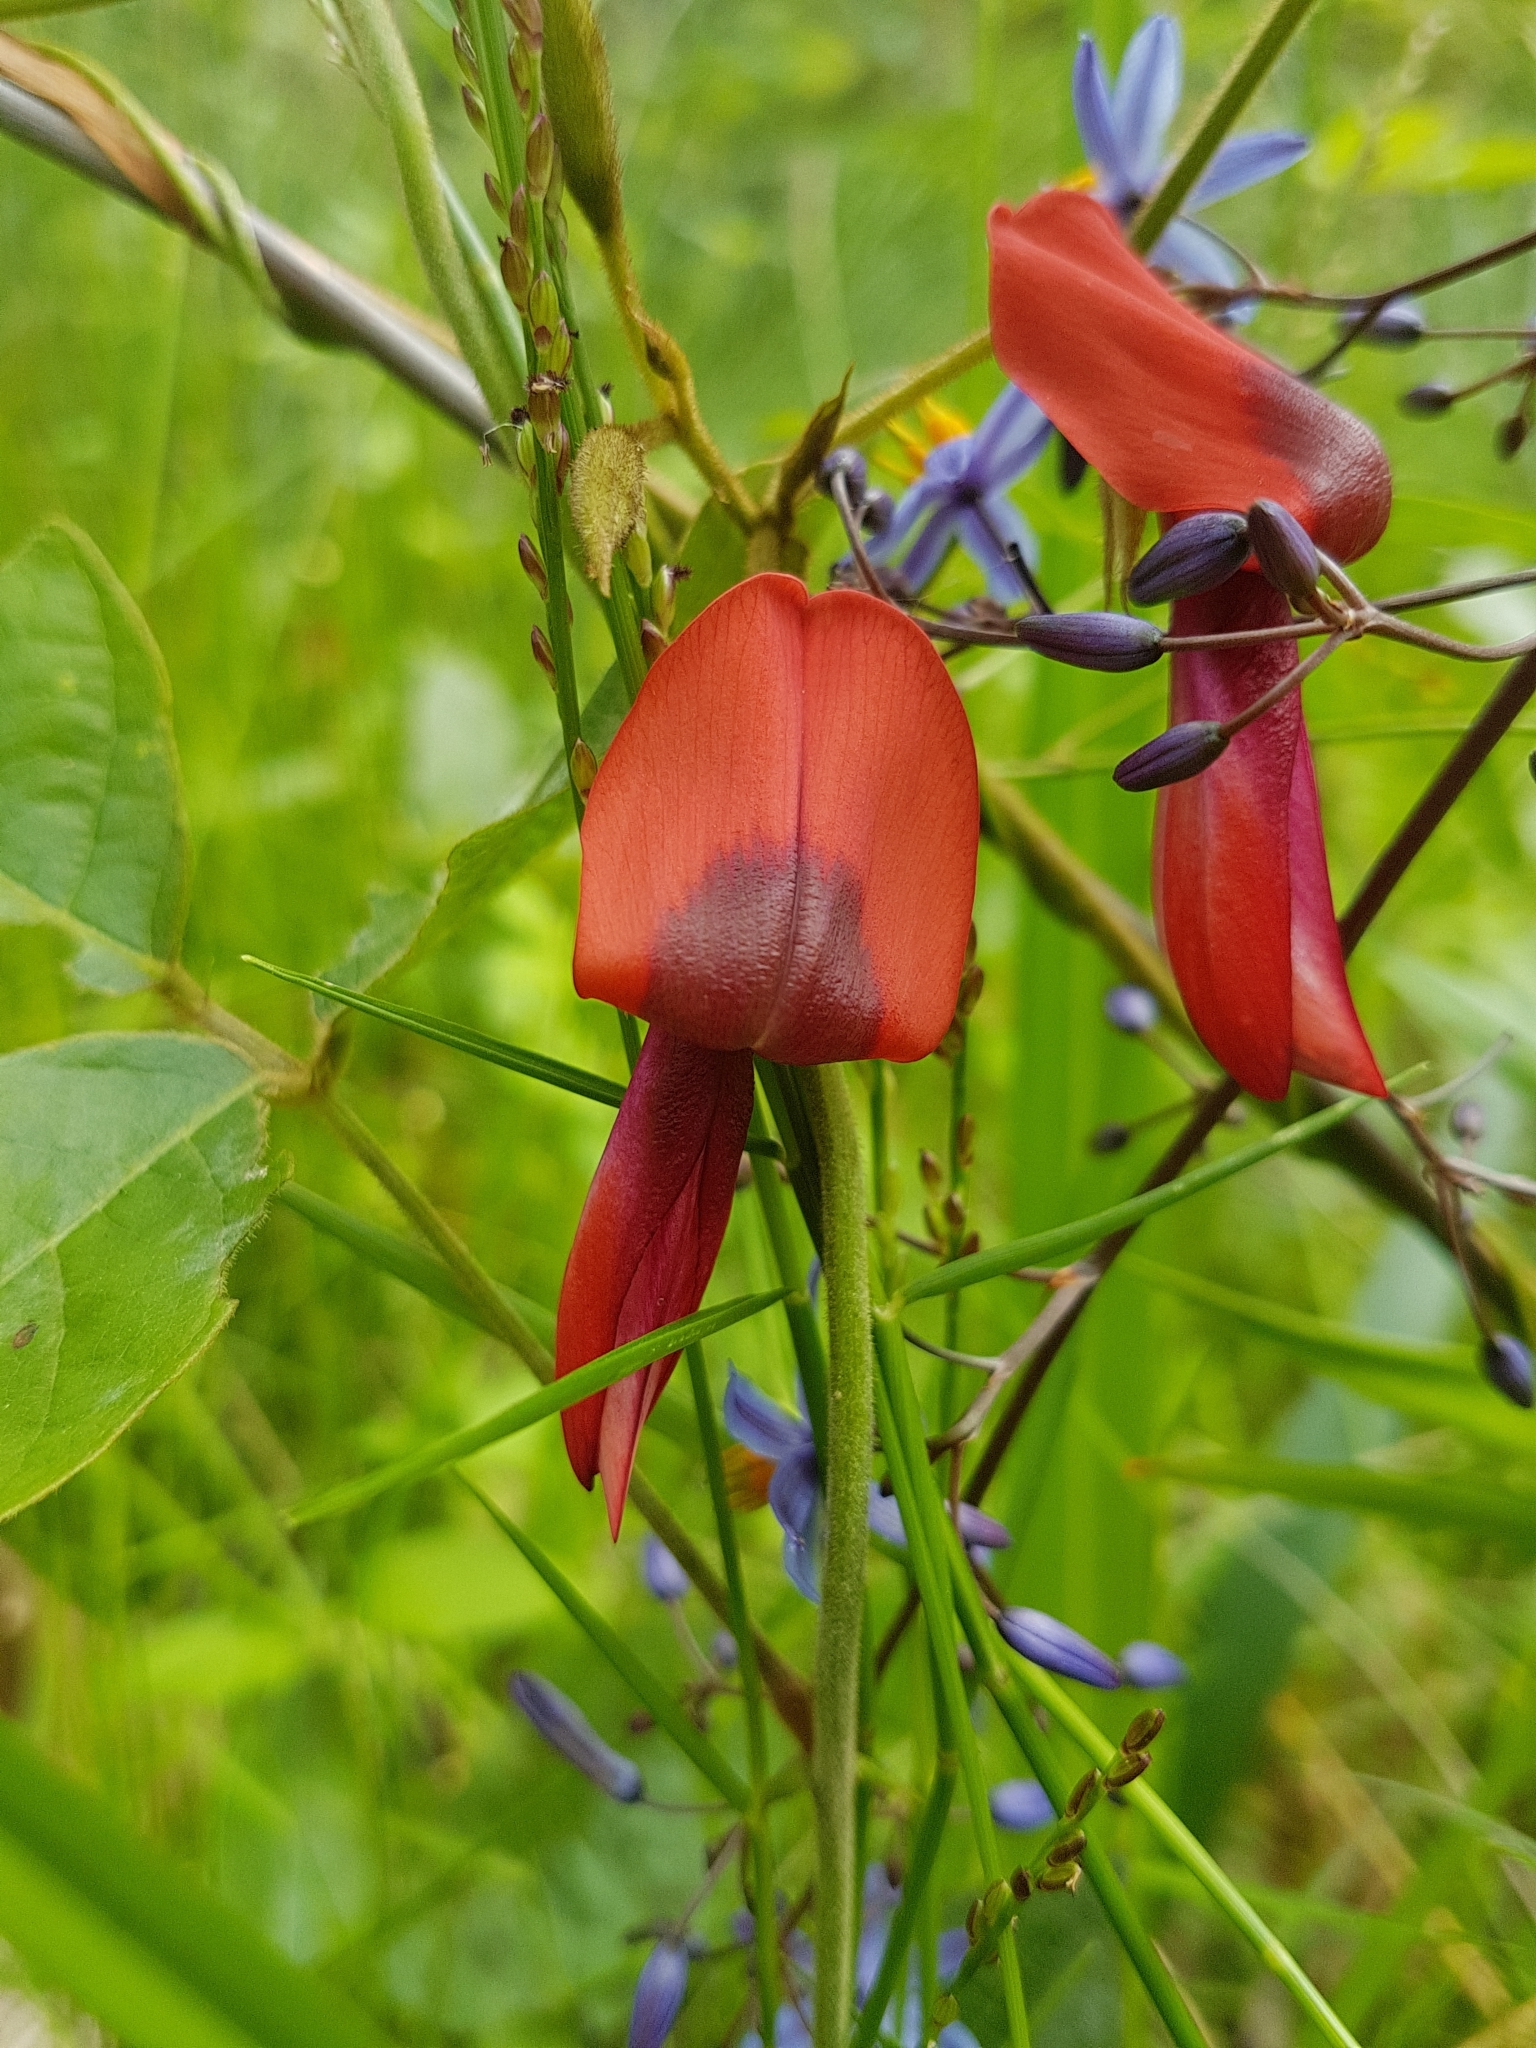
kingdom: Plantae
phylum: Tracheophyta
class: Magnoliopsida
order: Fabales
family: Fabaceae
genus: Kennedia
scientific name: Kennedia rubicunda
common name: Red kennedy-pea
